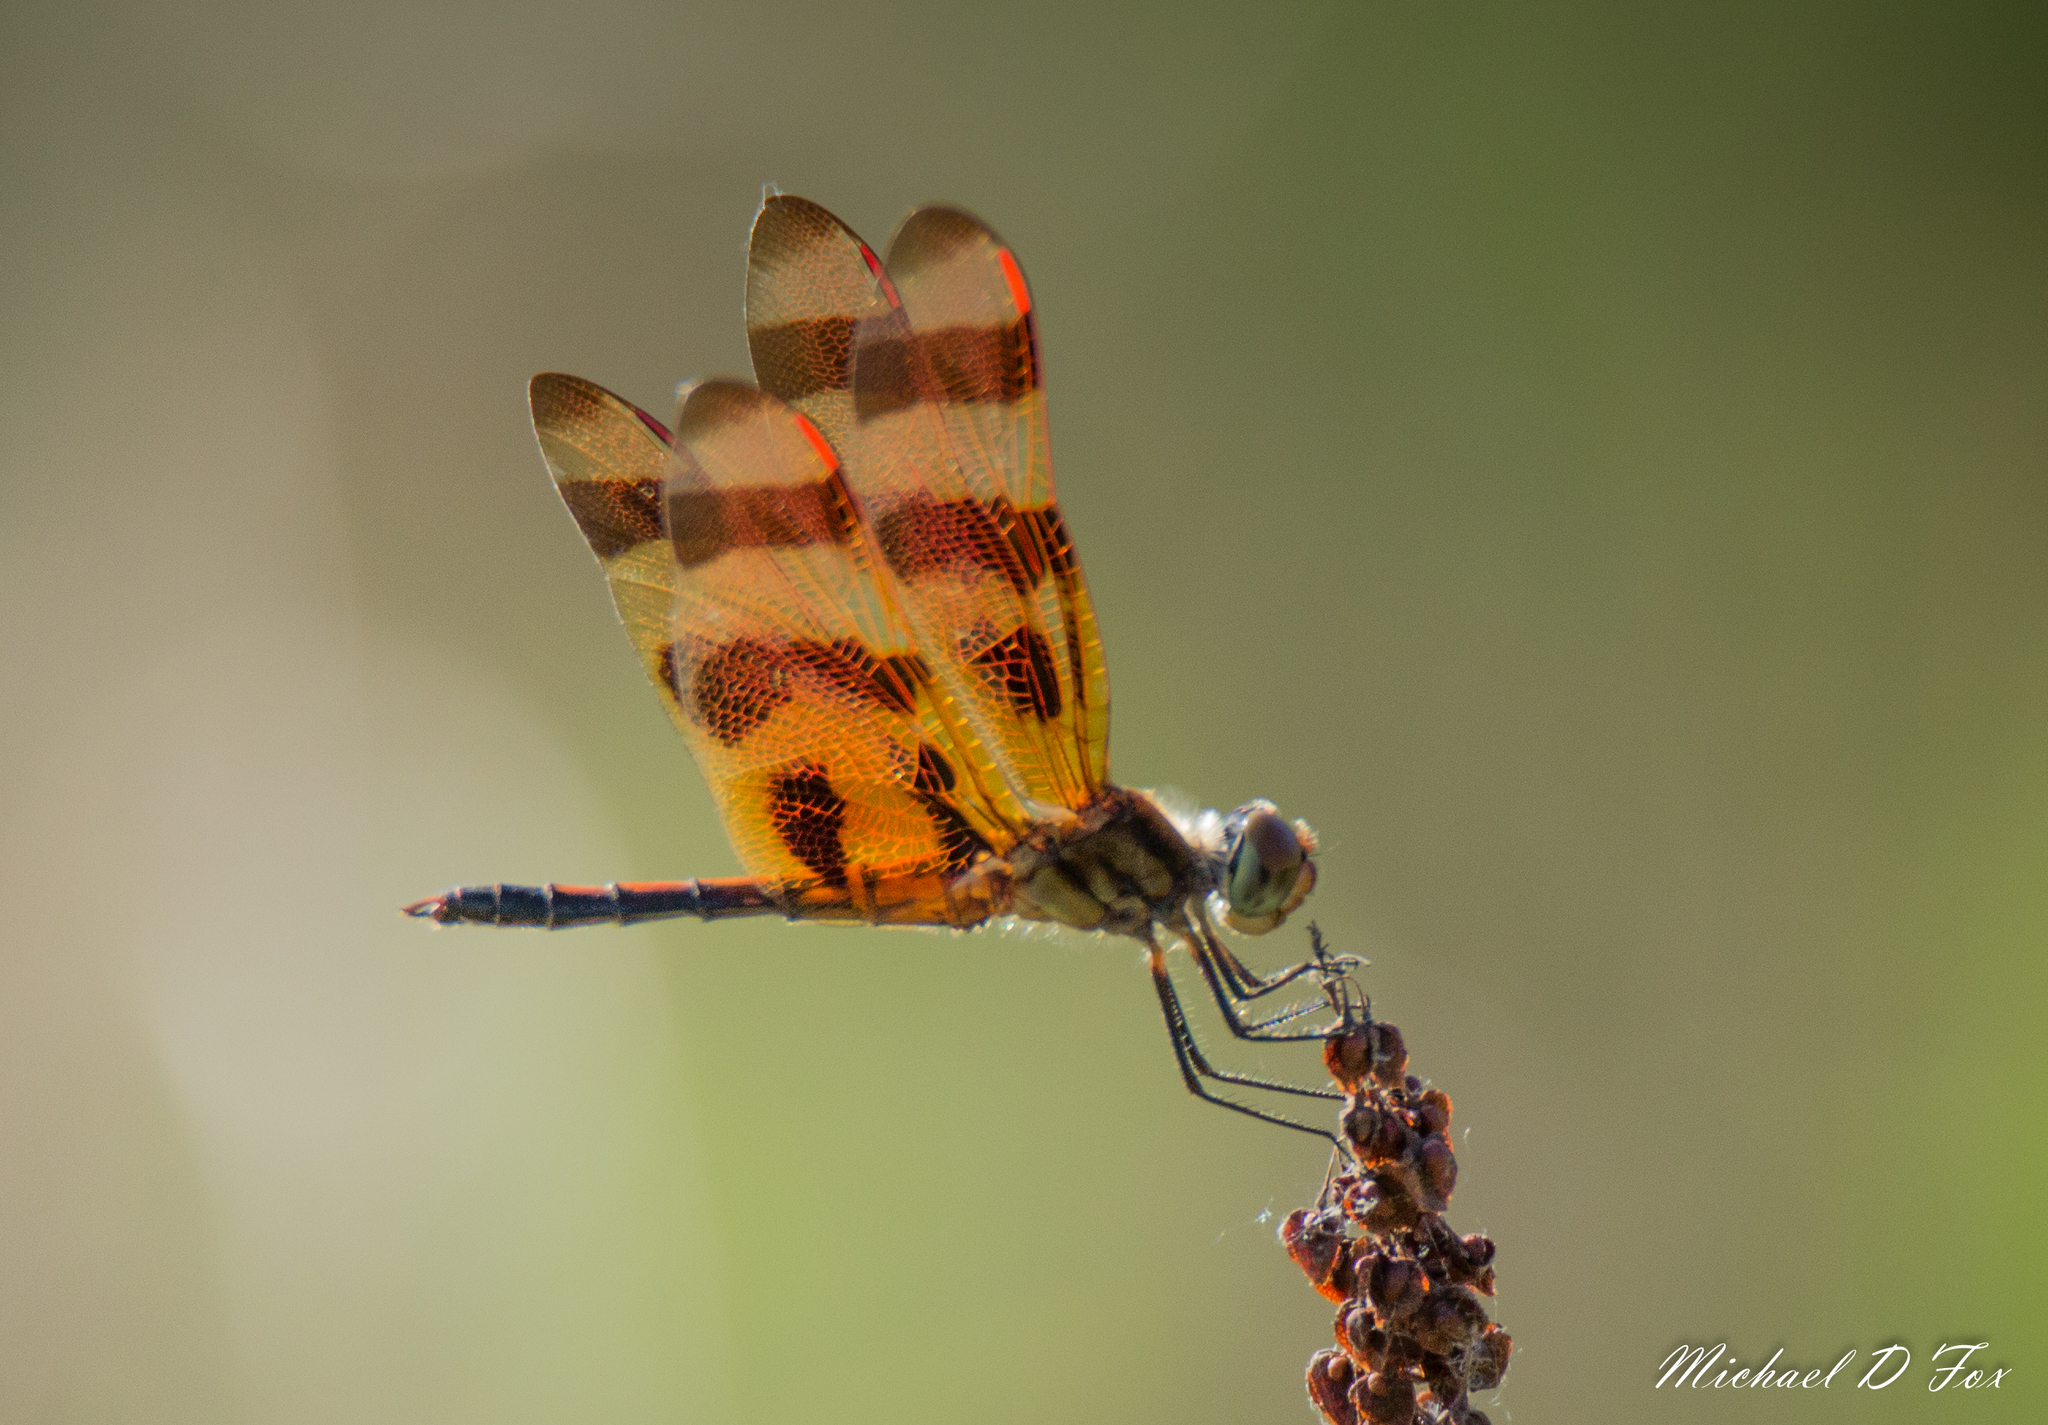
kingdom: Animalia
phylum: Arthropoda
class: Insecta
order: Odonata
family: Libellulidae
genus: Celithemis
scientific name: Celithemis eponina
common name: Halloween pennant
